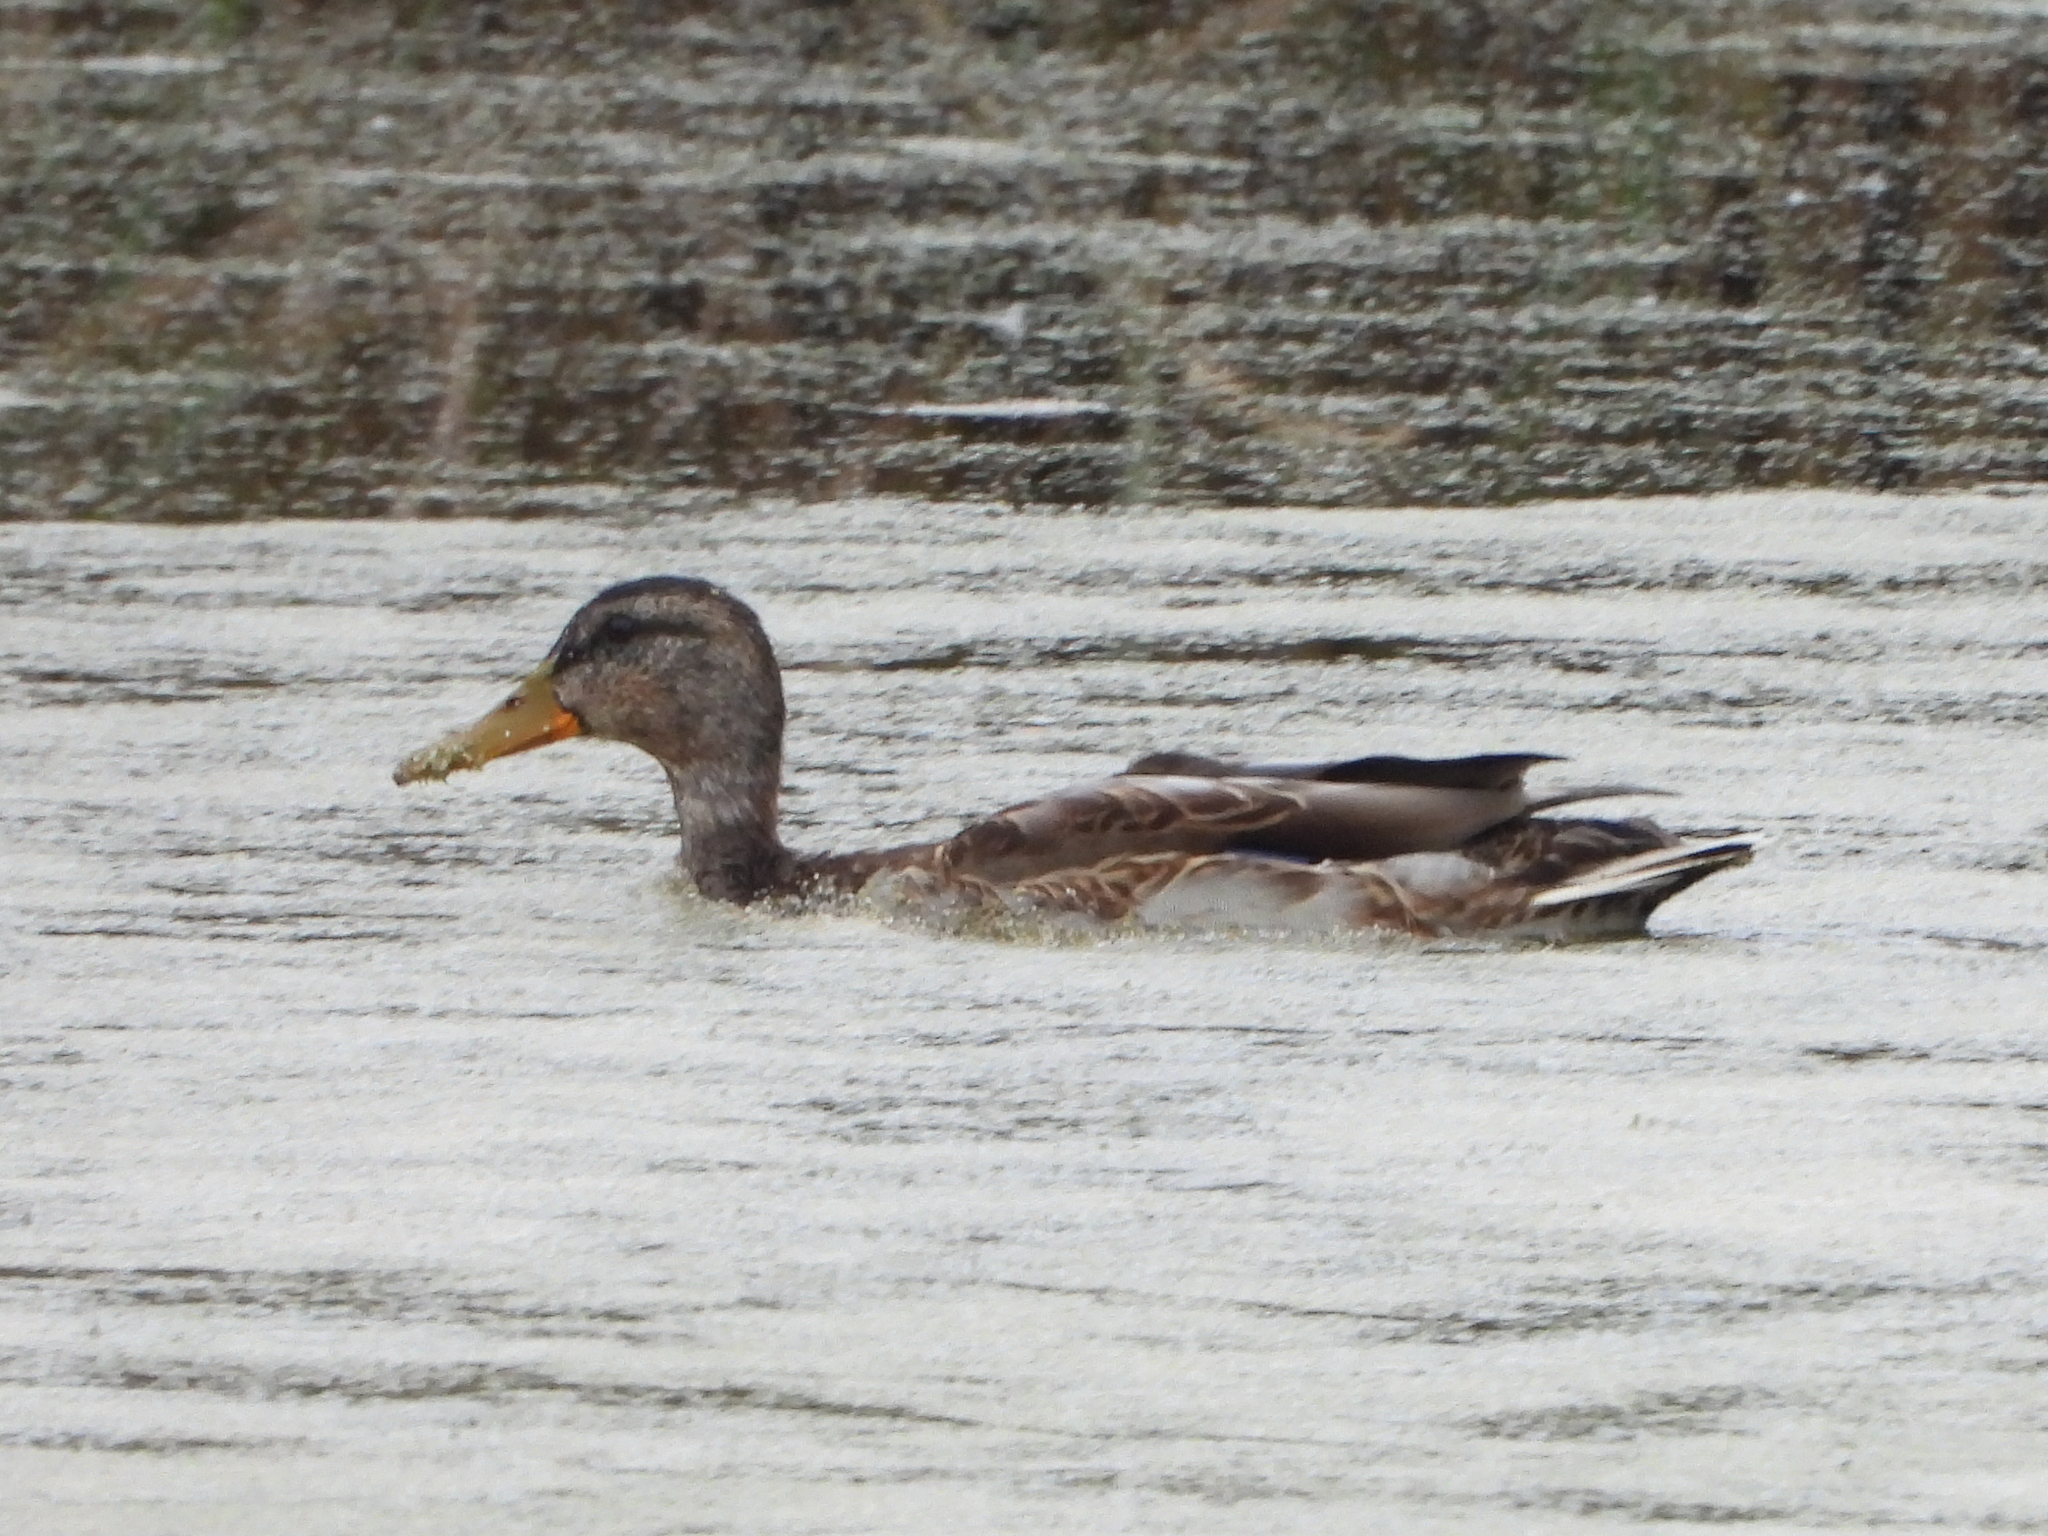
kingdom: Animalia
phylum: Chordata
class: Aves
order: Anseriformes
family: Anatidae
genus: Anas
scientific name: Anas platyrhynchos
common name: Mallard
